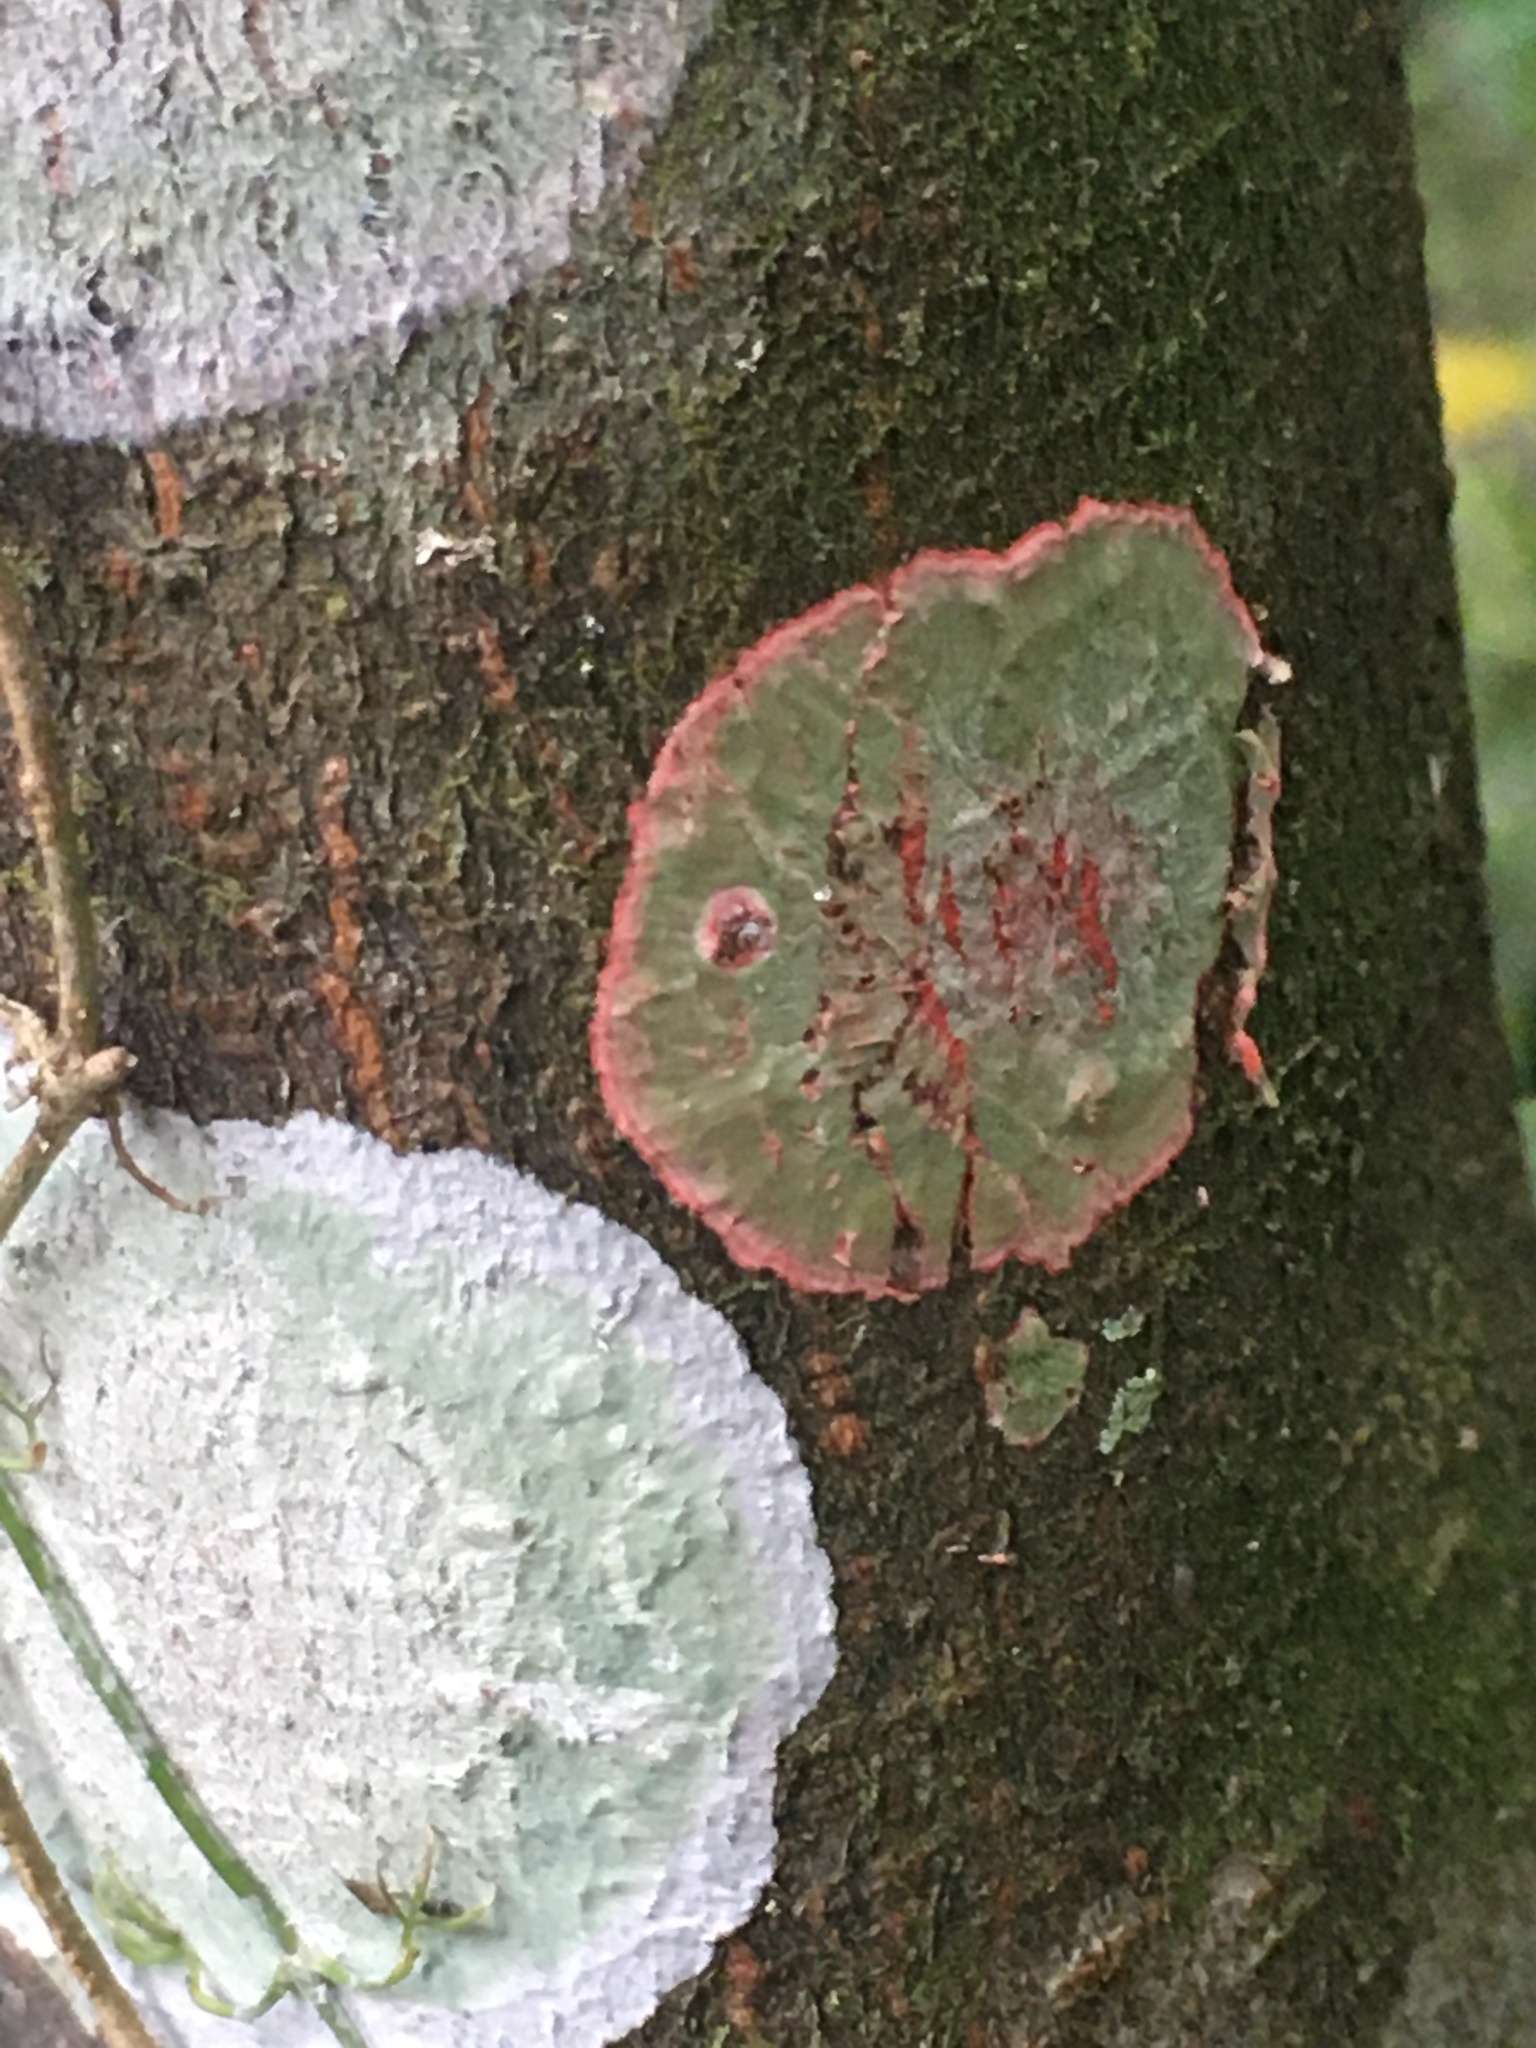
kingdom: Fungi
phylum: Ascomycota
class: Arthoniomycetes
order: Arthoniales
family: Arthoniaceae
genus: Herpothallon
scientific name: Herpothallon rubrocinctum
